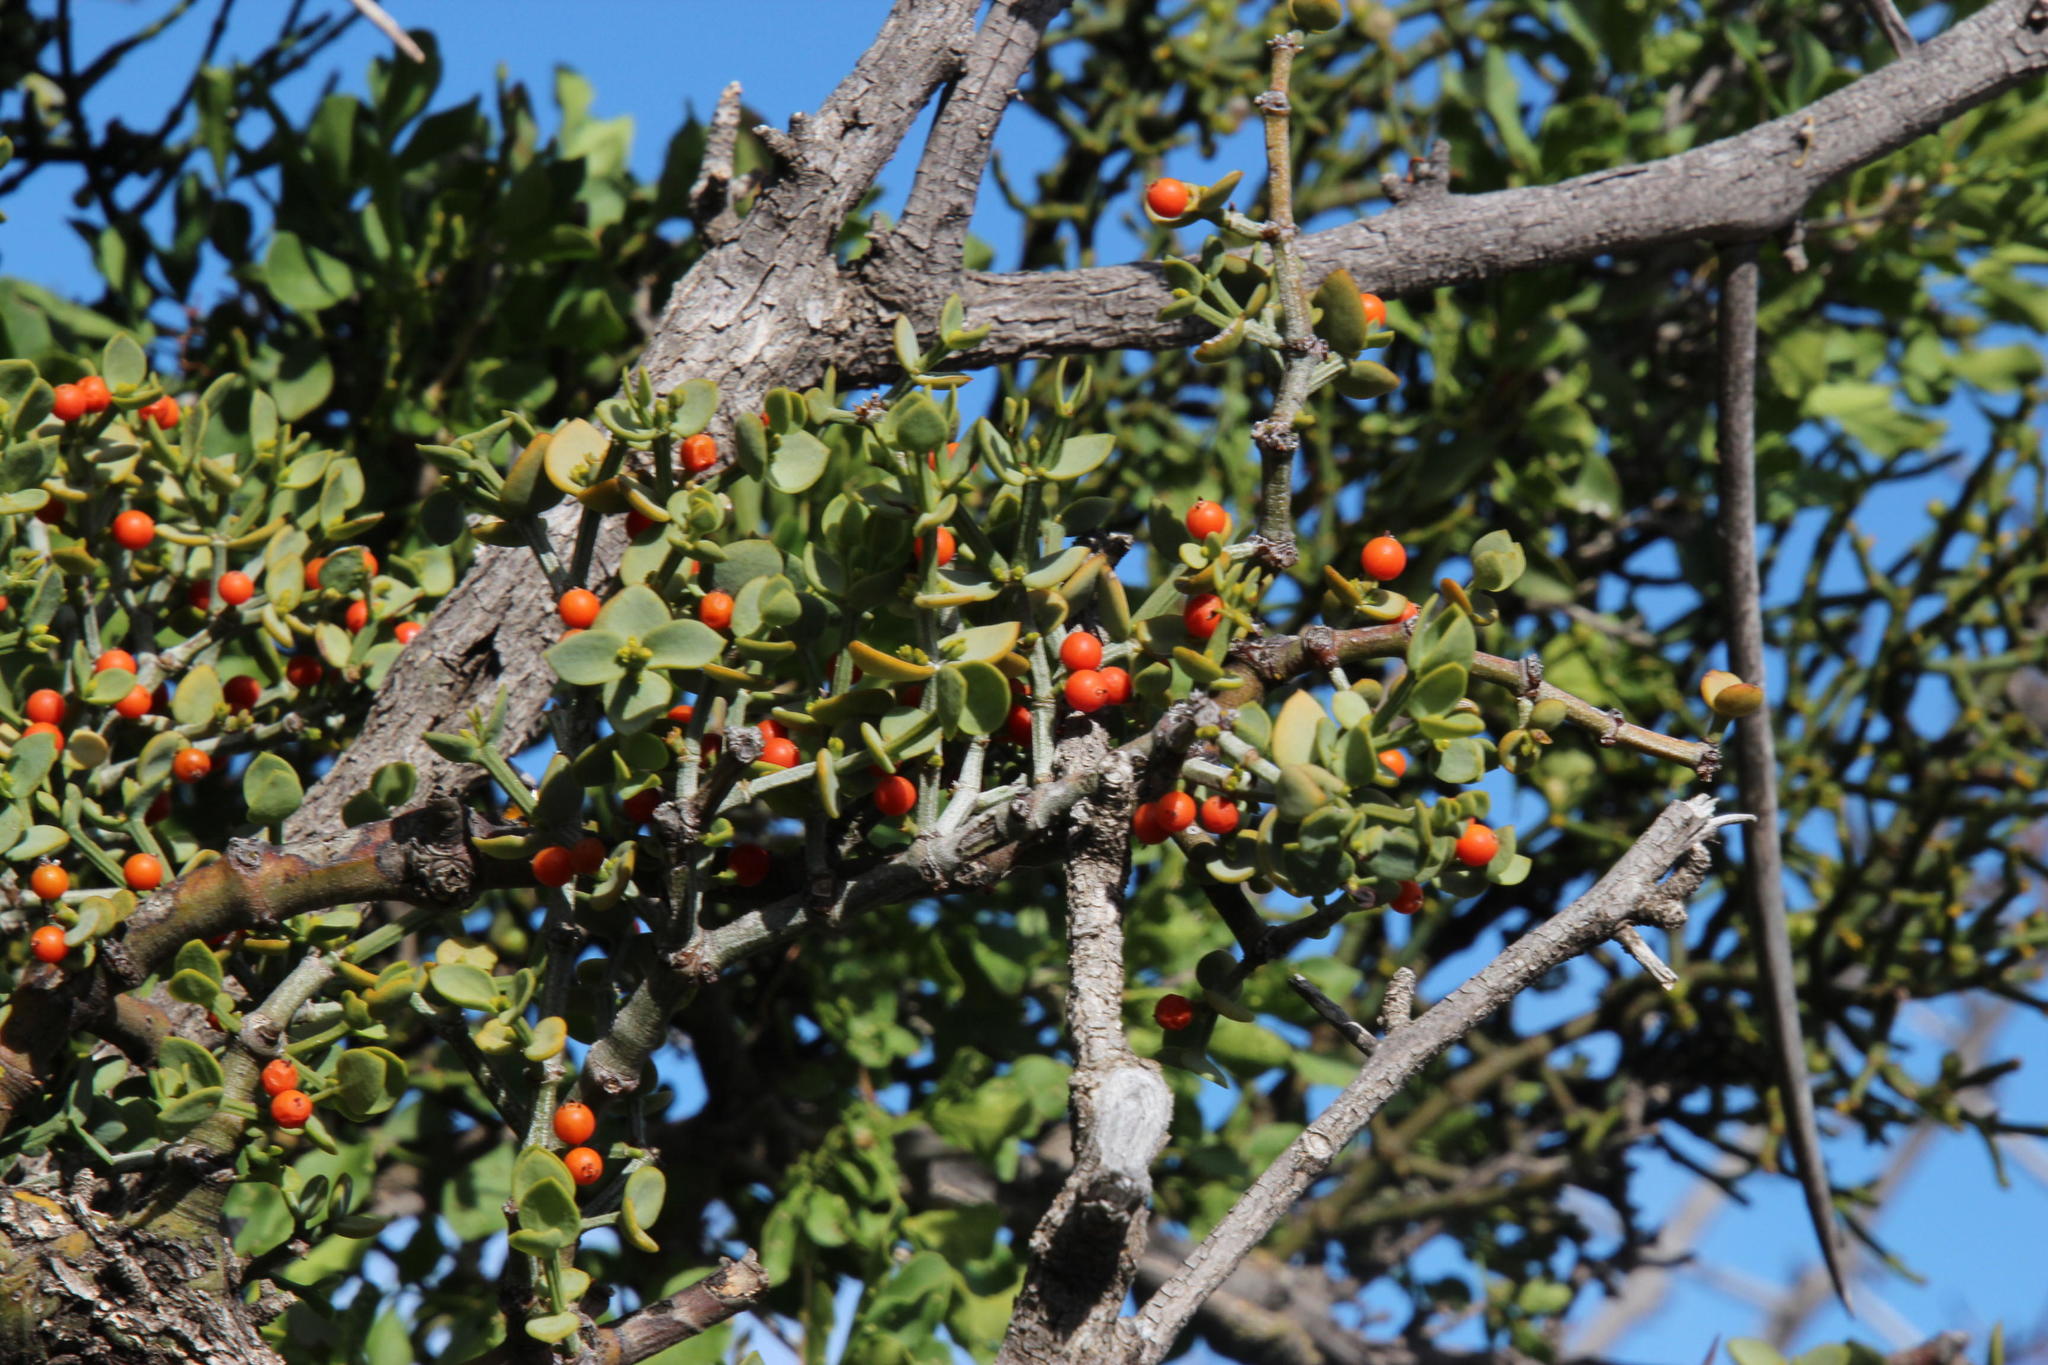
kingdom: Plantae
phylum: Tracheophyta
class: Magnoliopsida
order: Santalales
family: Viscaceae
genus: Viscum
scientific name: Viscum rotundifolium
